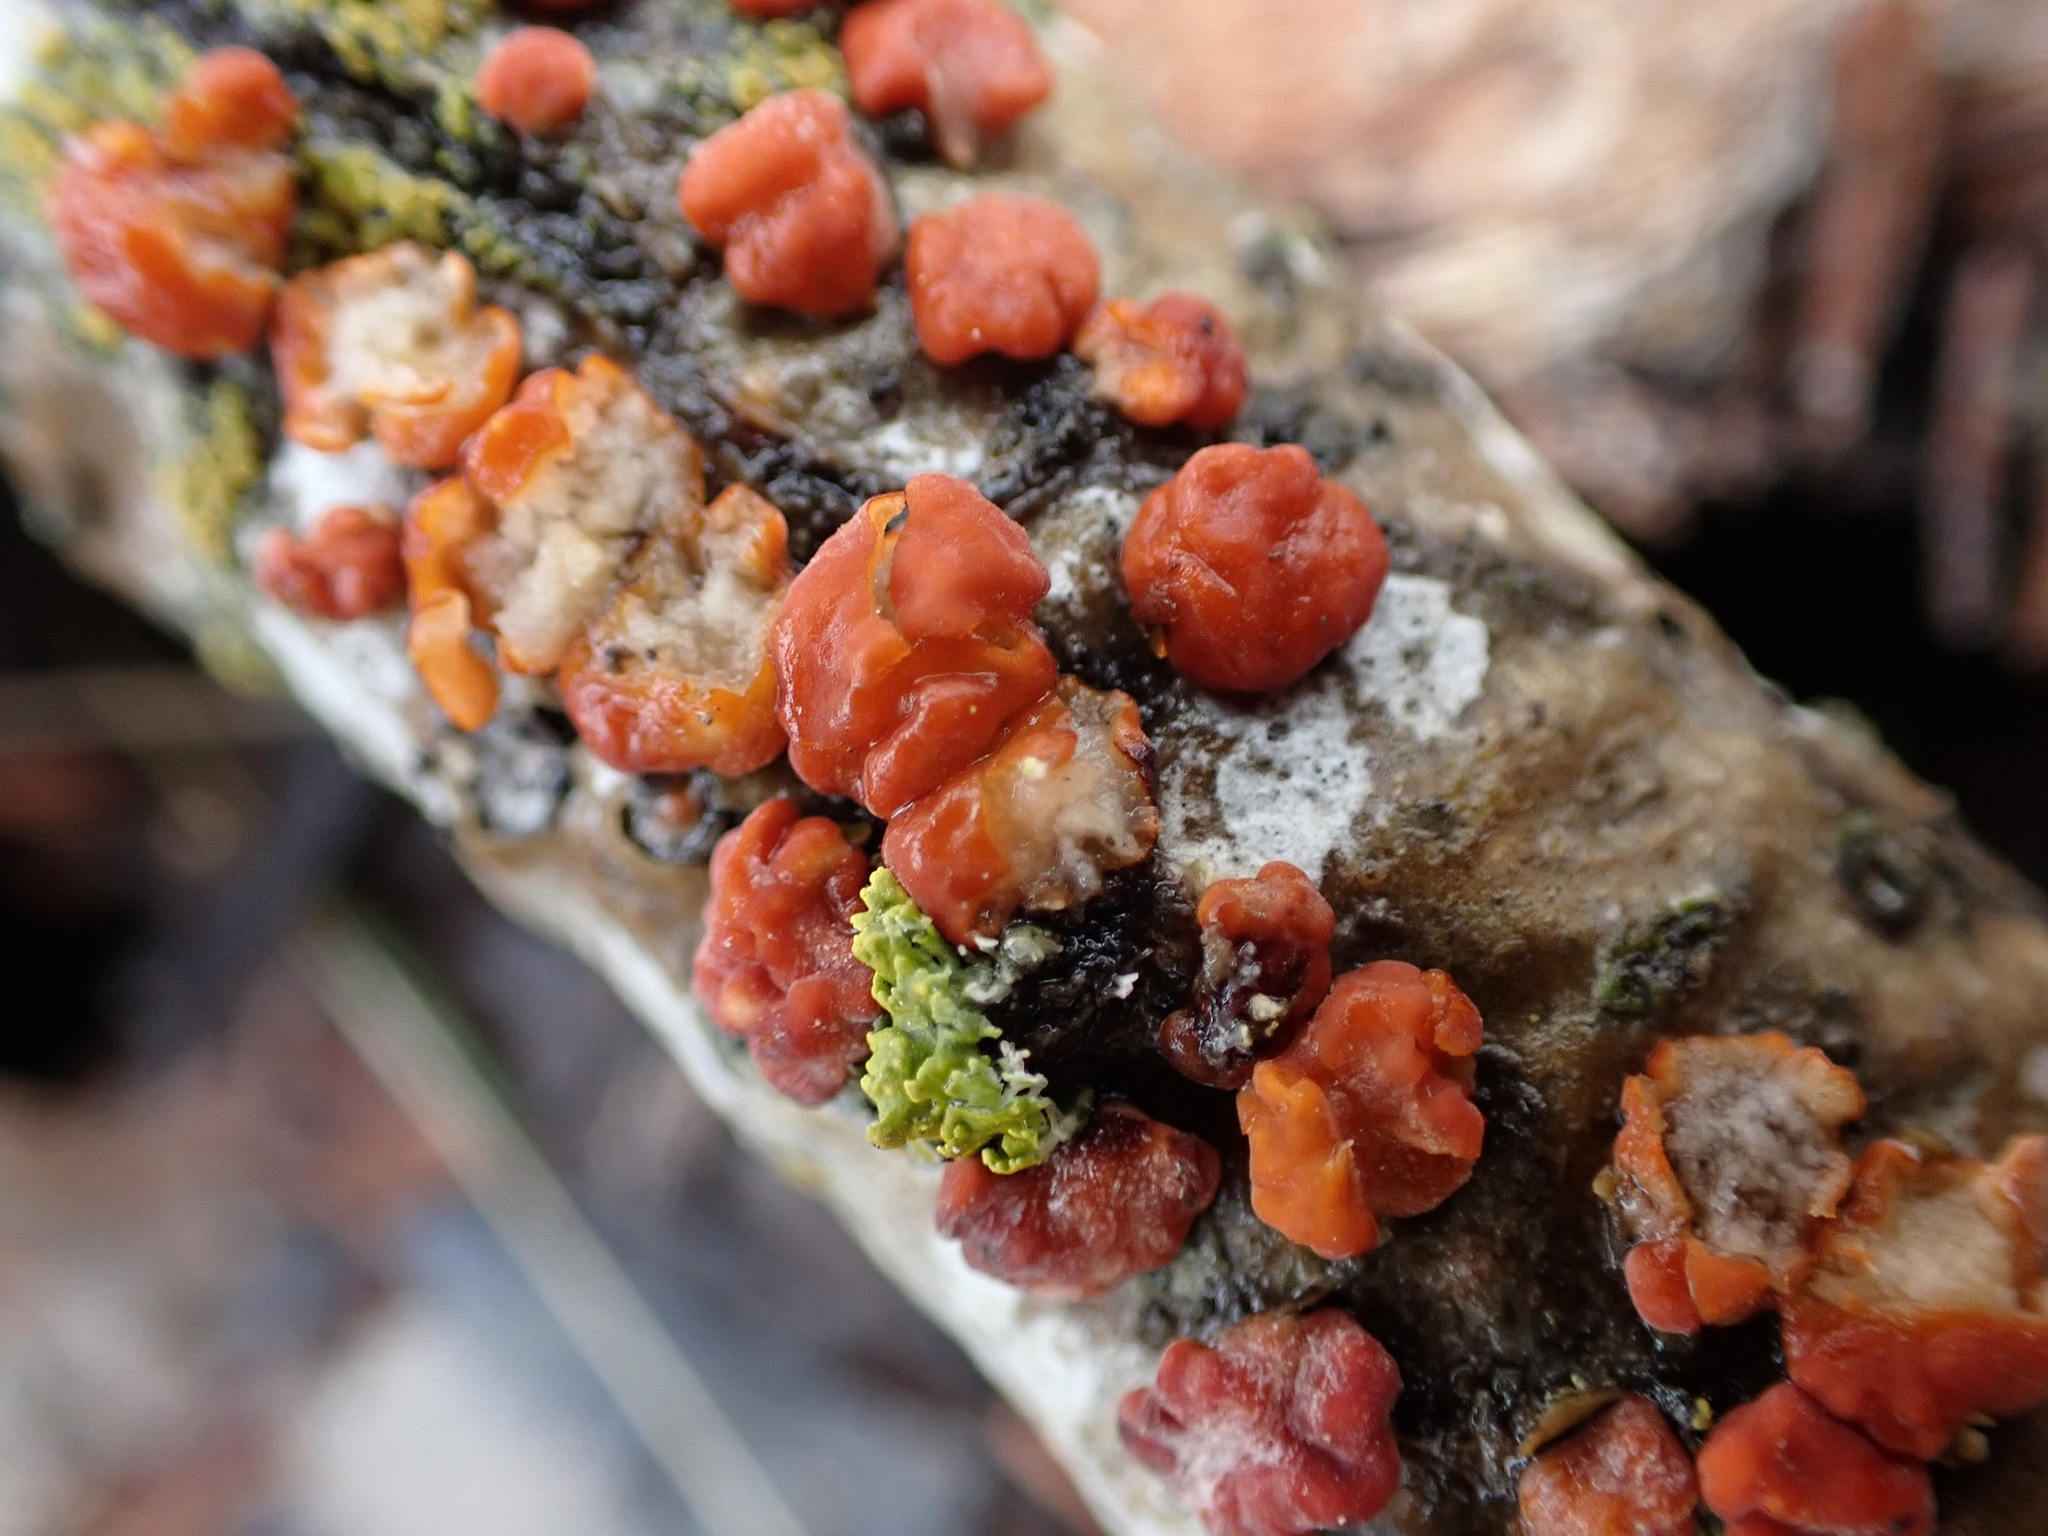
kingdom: Fungi
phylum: Basidiomycota
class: Agaricomycetes
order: Russulales
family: Peniophoraceae
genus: Peniophora
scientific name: Peniophora rufa
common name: Red tree brain fungus
